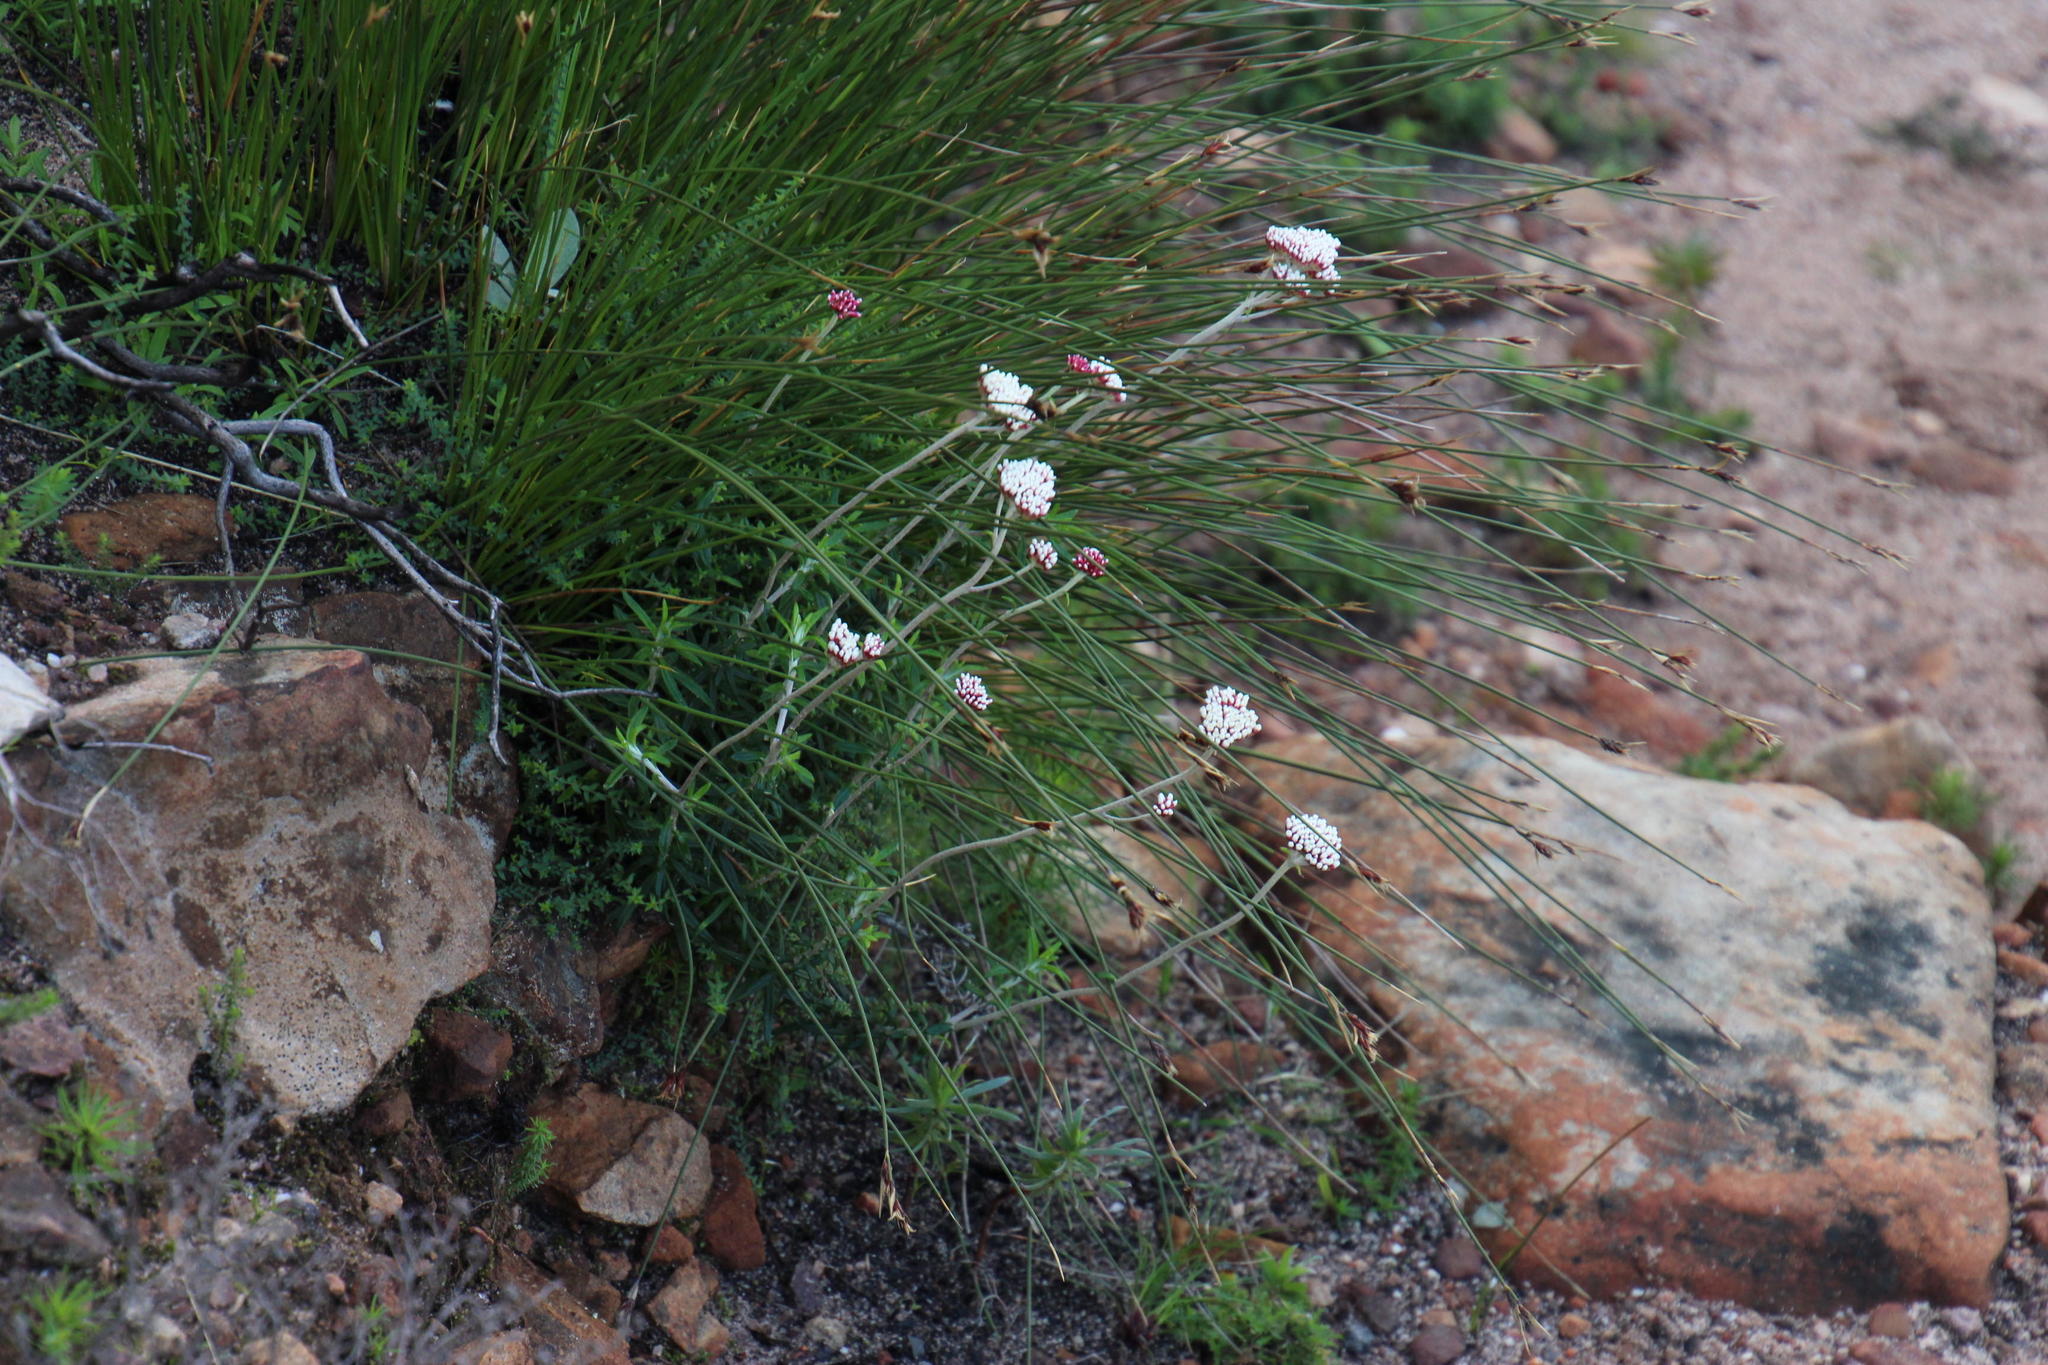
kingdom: Plantae
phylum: Tracheophyta
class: Magnoliopsida
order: Asterales
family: Asteraceae
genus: Anaxeton
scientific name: Anaxeton arborescens
